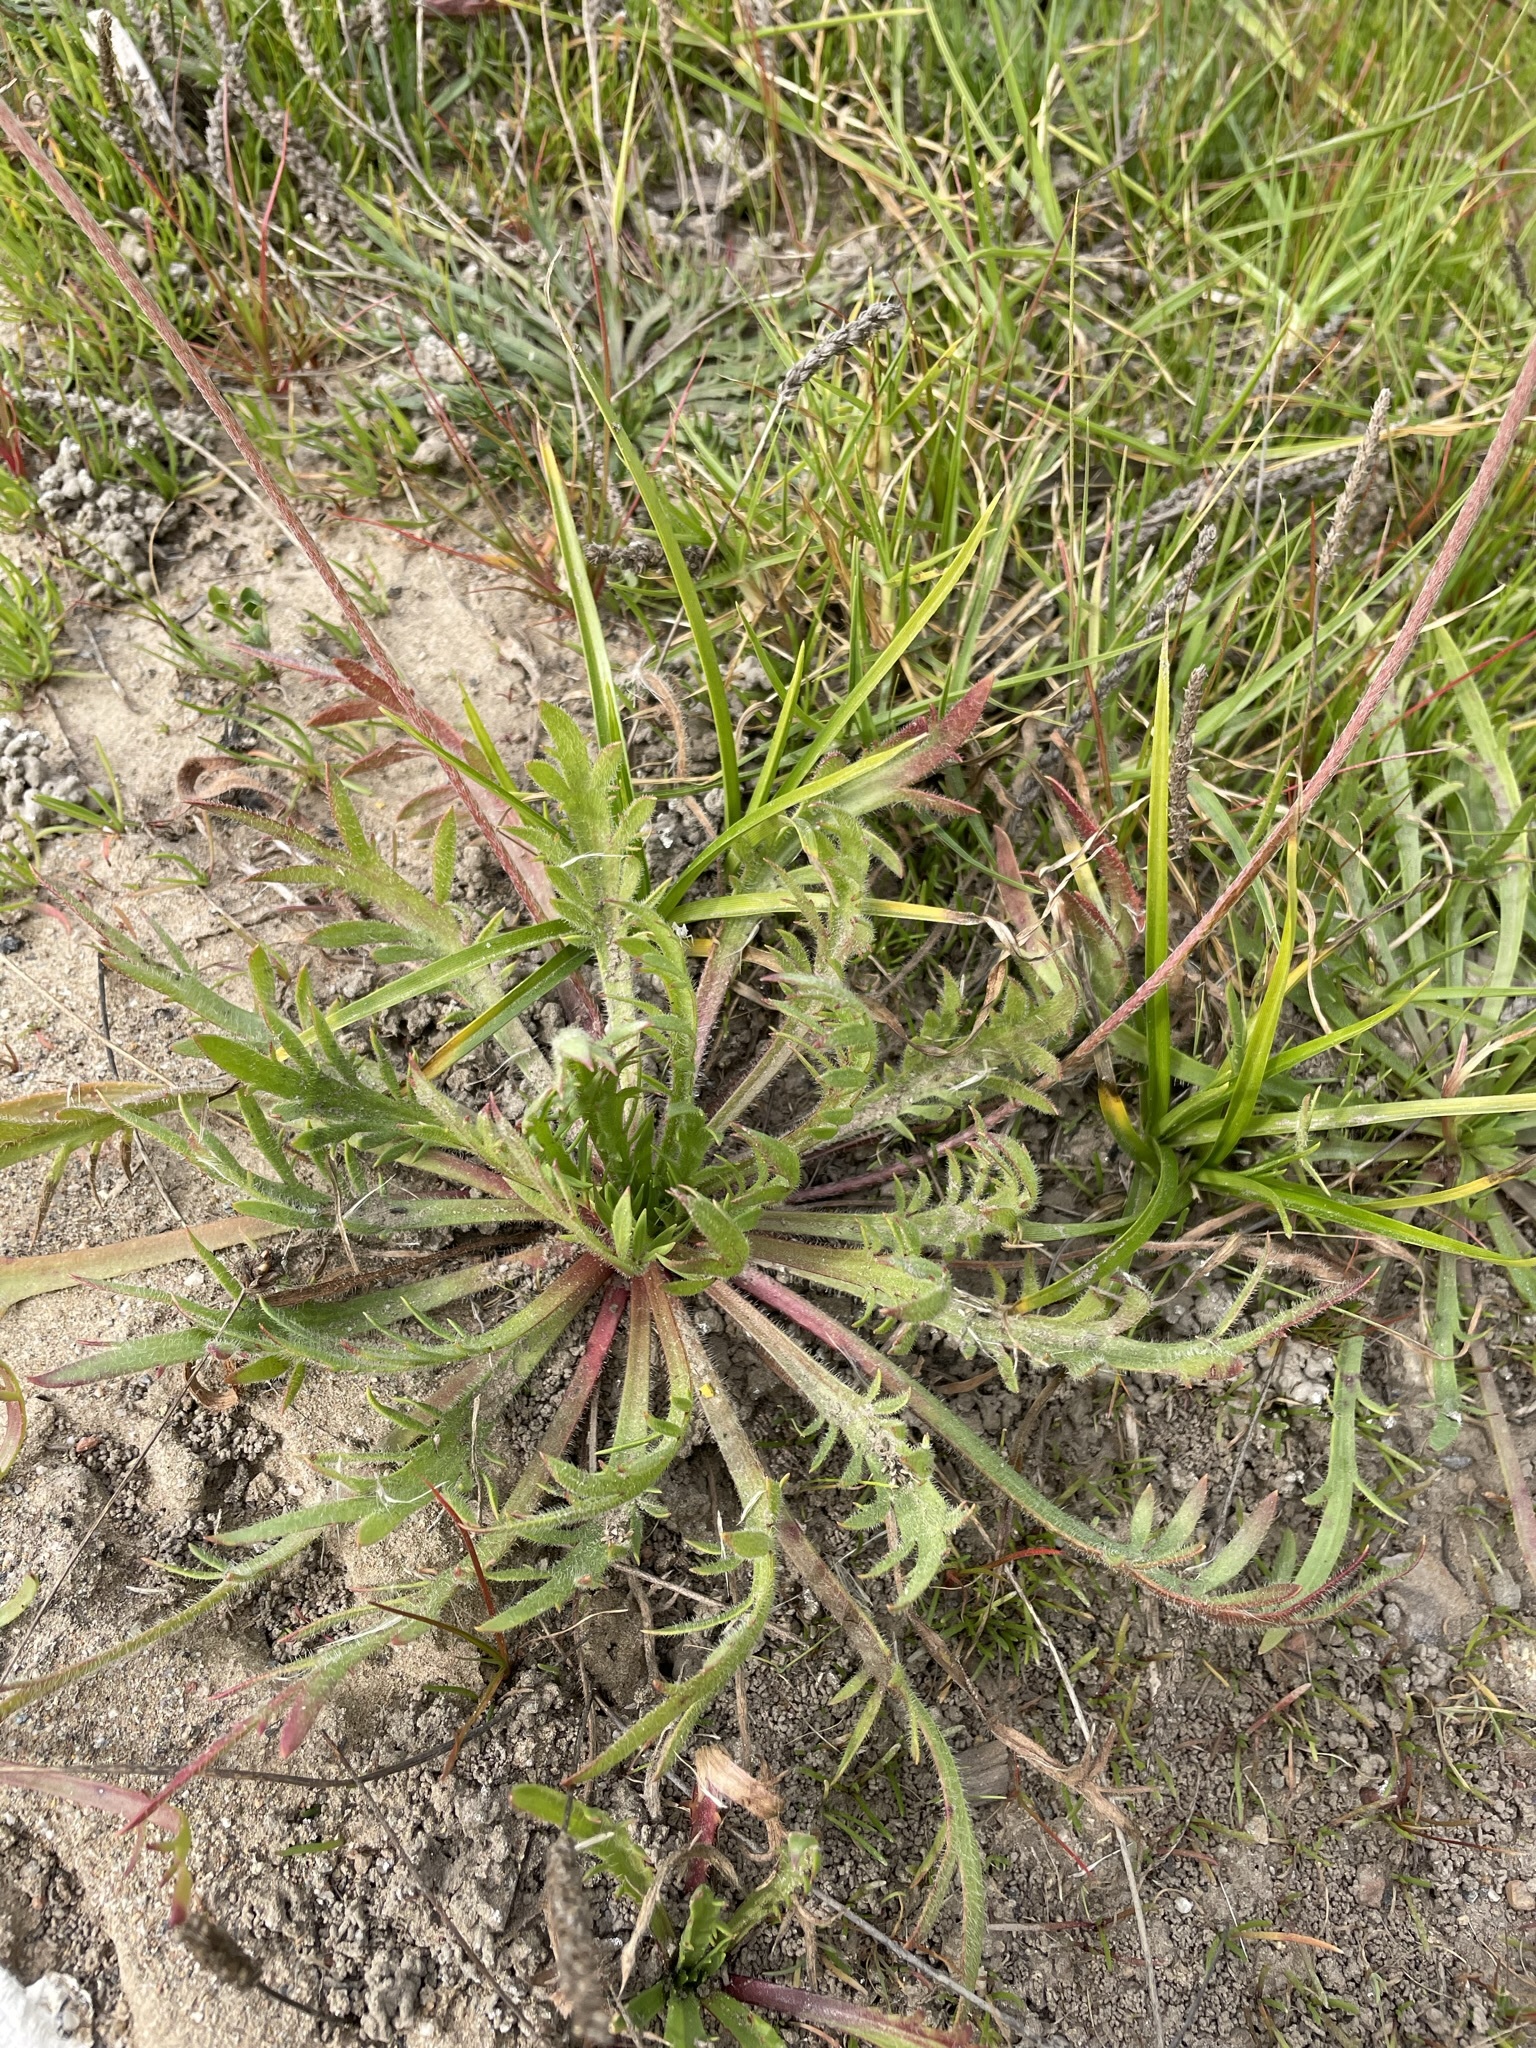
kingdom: Plantae
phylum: Tracheophyta
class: Magnoliopsida
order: Lamiales
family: Plantaginaceae
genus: Plantago
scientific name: Plantago coronopus
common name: Buck's-horn plantain
